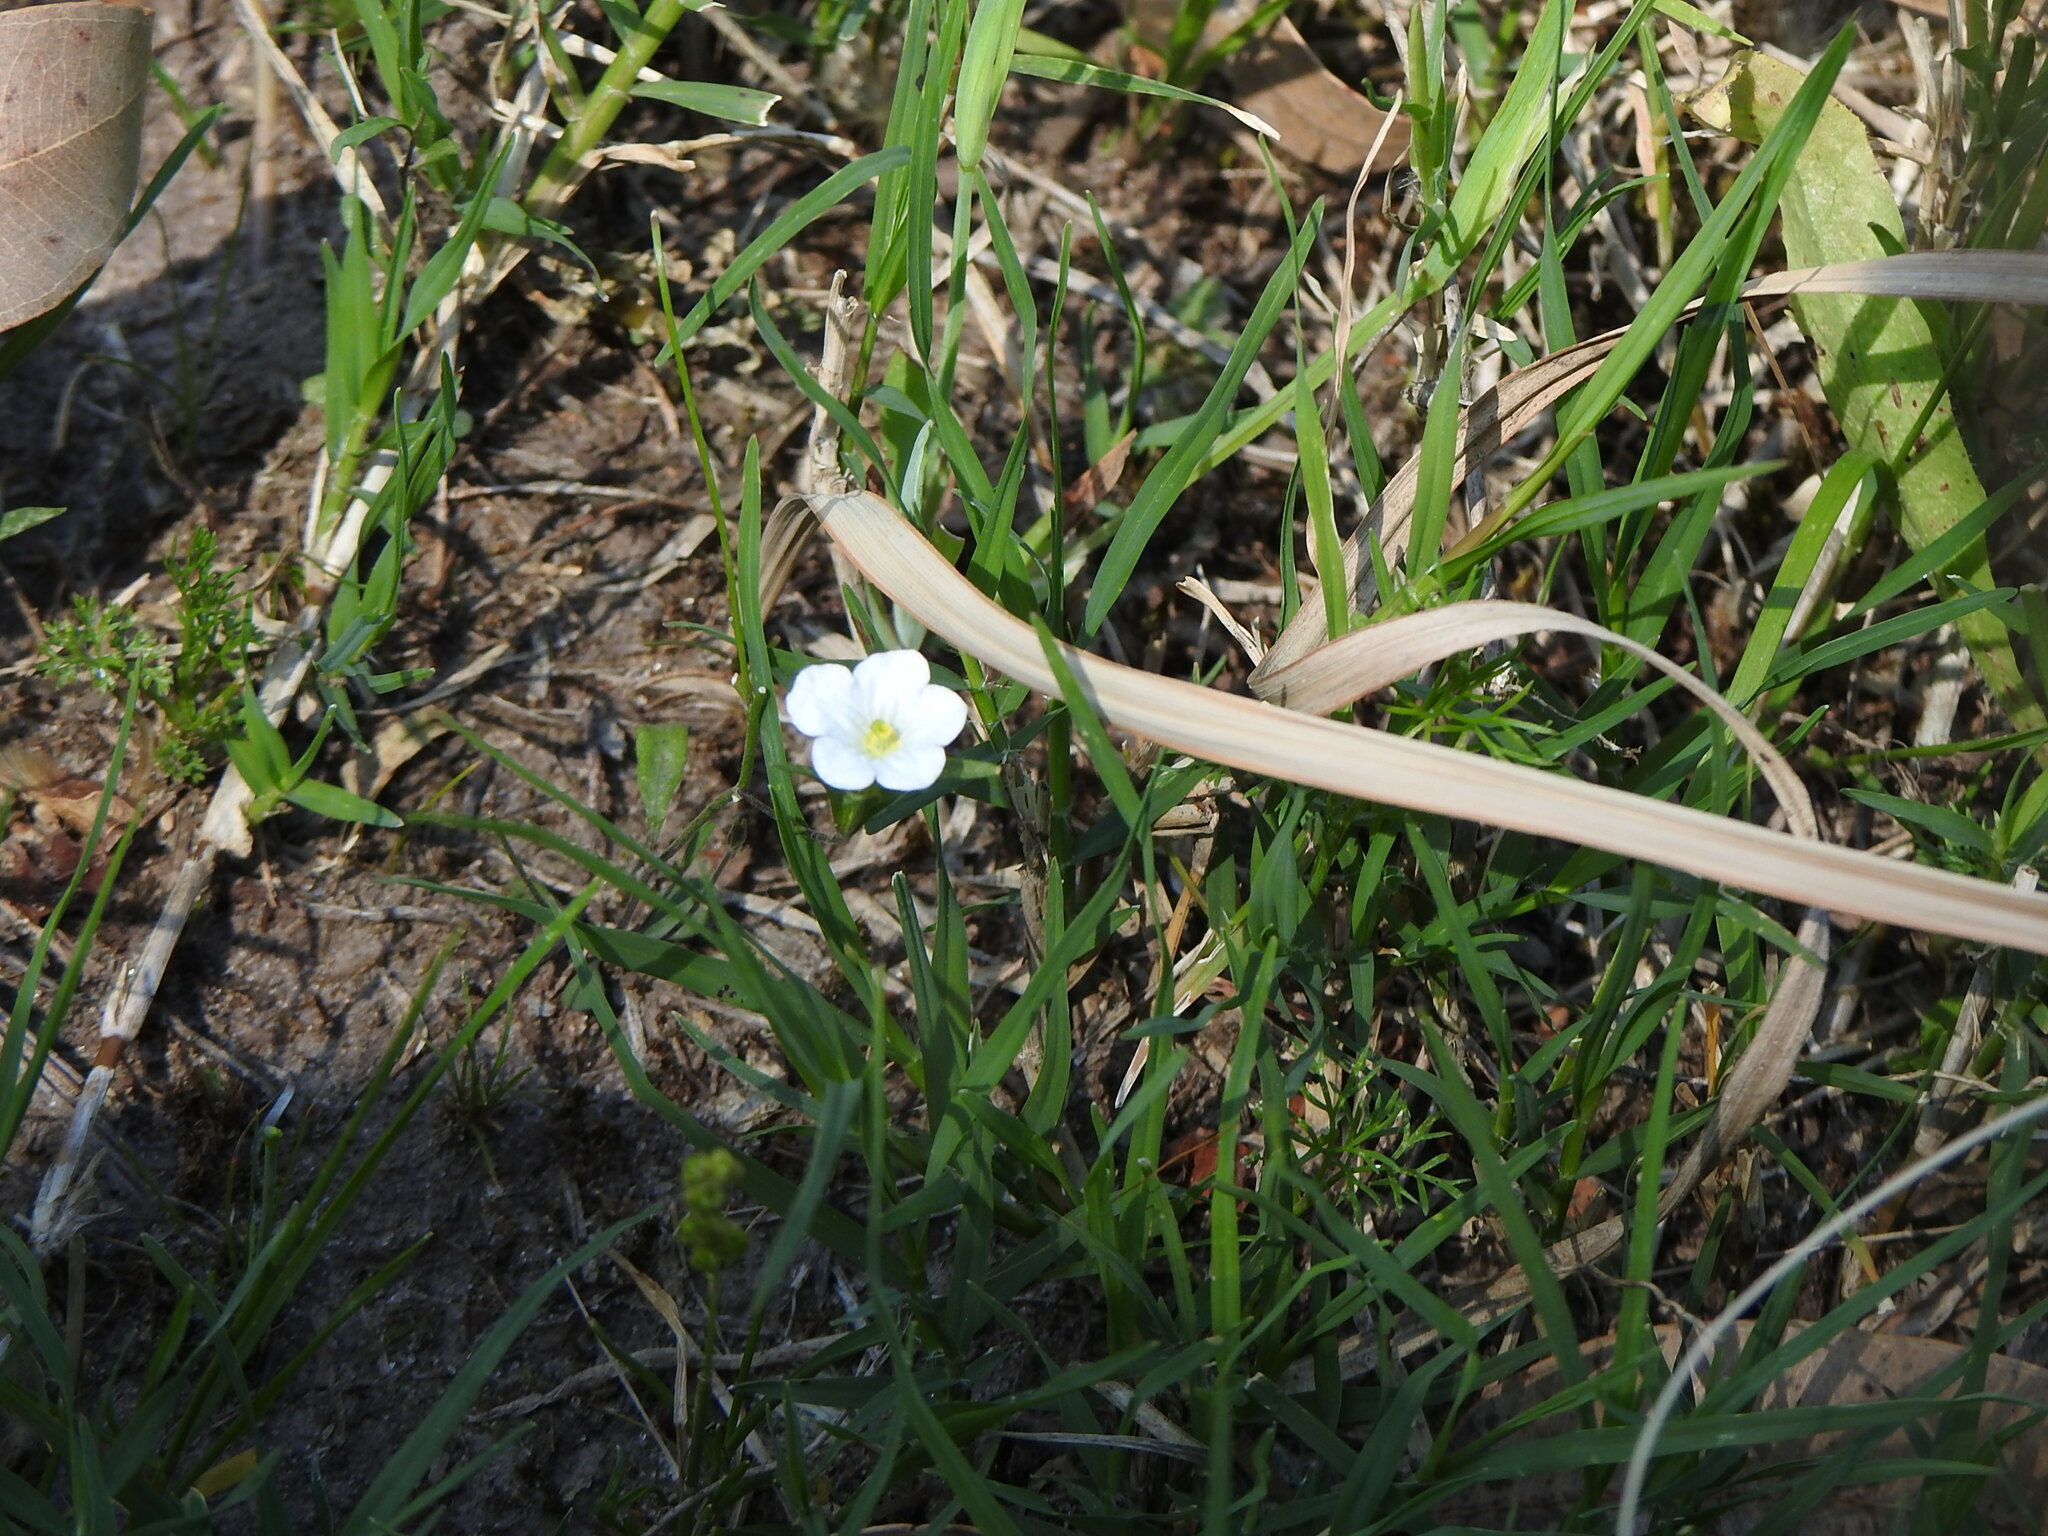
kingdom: Plantae
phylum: Tracheophyta
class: Magnoliopsida
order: Solanales
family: Solanaceae
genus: Nierembergia
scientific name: Nierembergia rivularis
